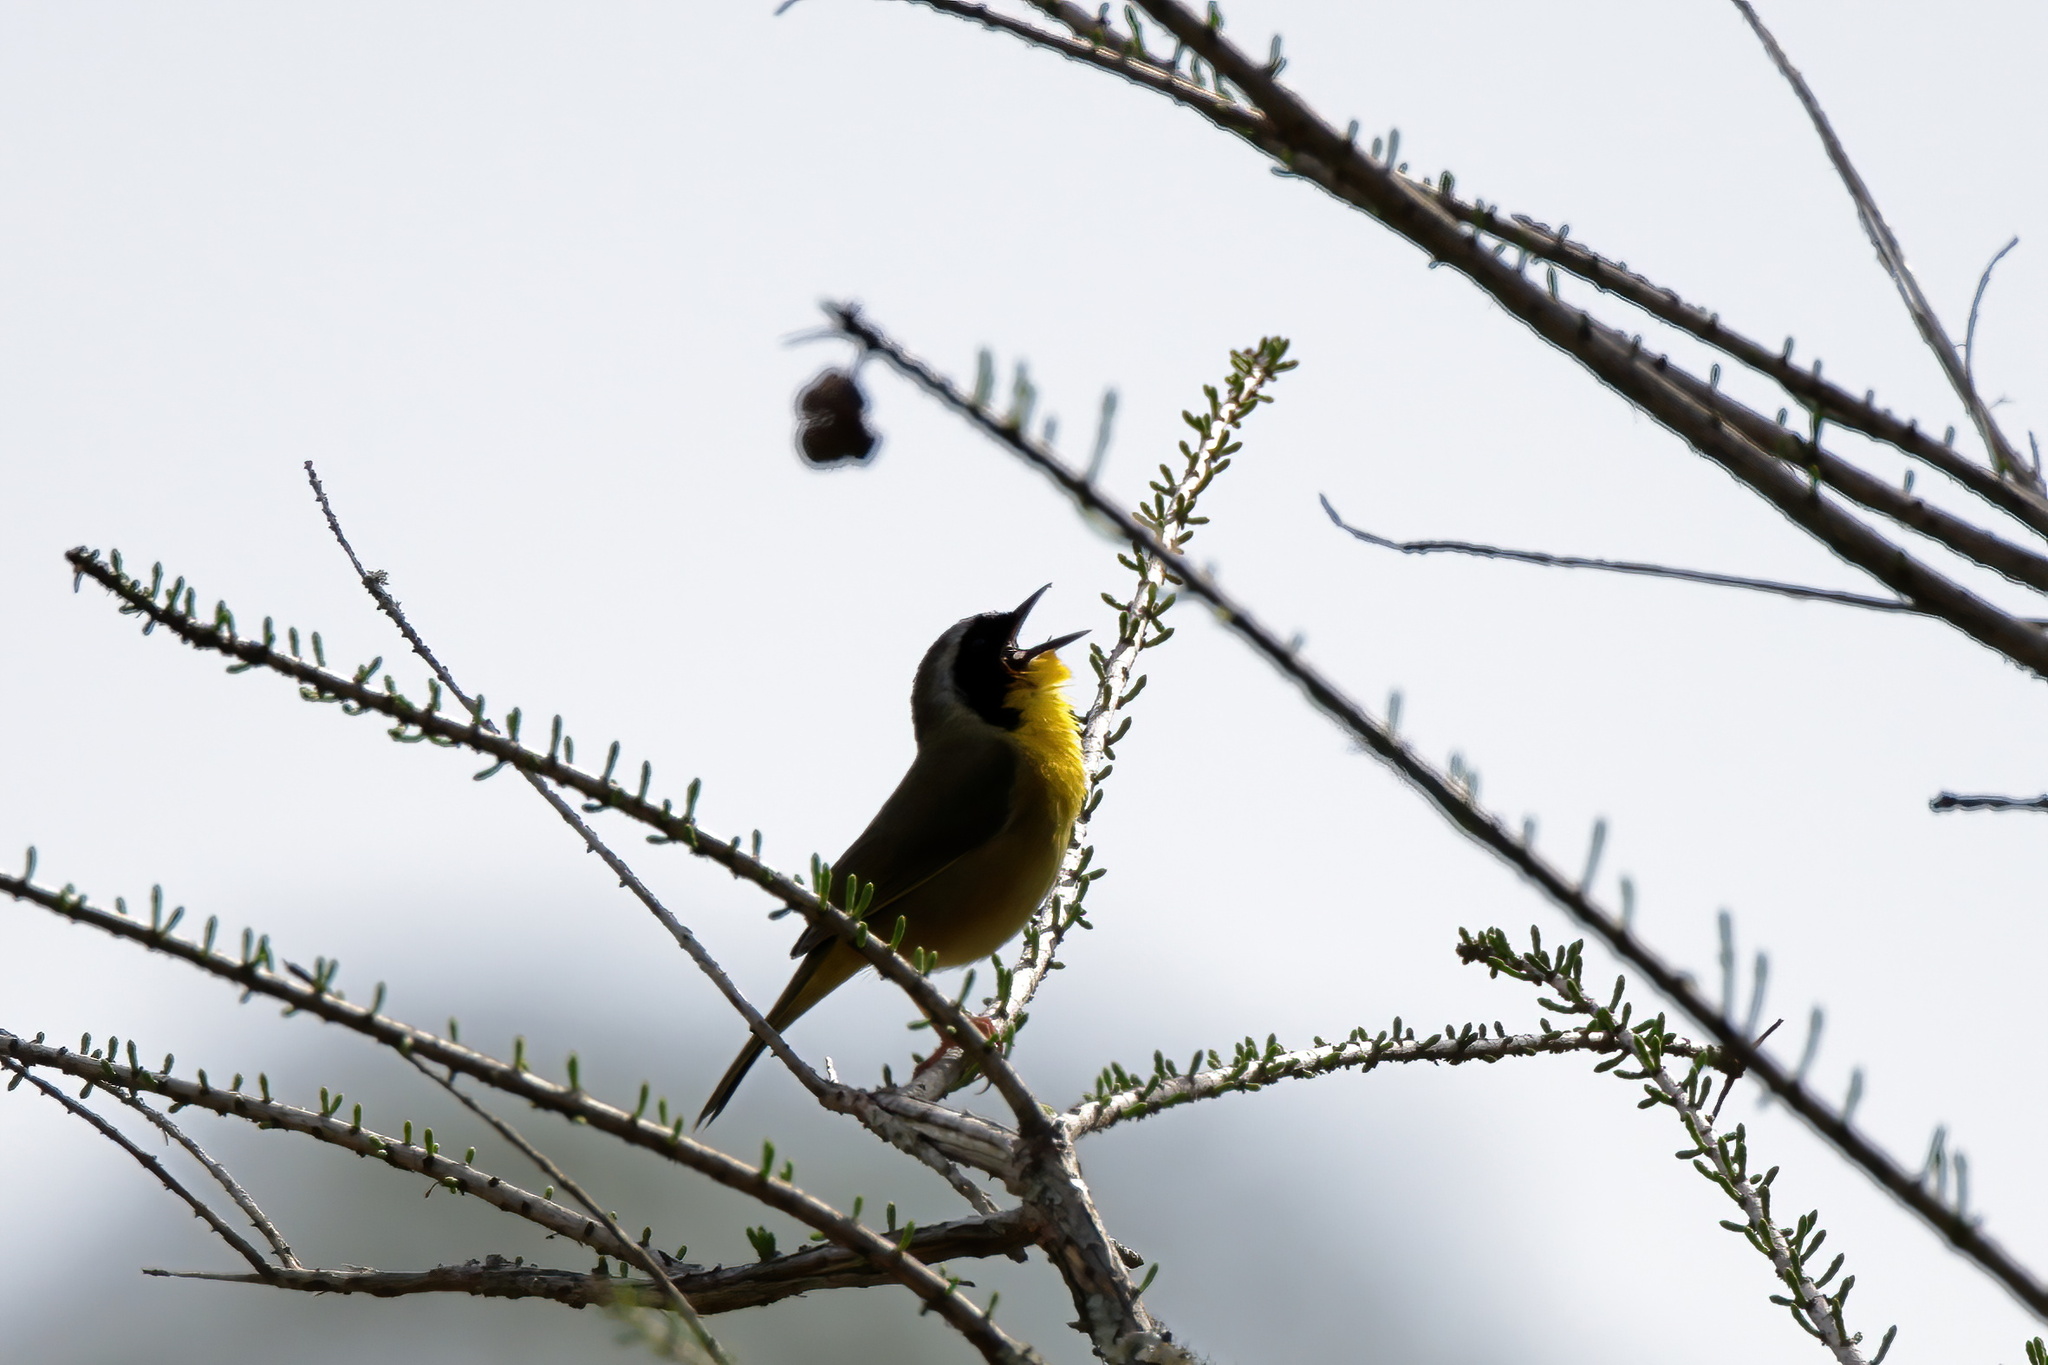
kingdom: Animalia
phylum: Chordata
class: Aves
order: Passeriformes
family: Parulidae
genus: Geothlypis
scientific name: Geothlypis trichas
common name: Common yellowthroat
